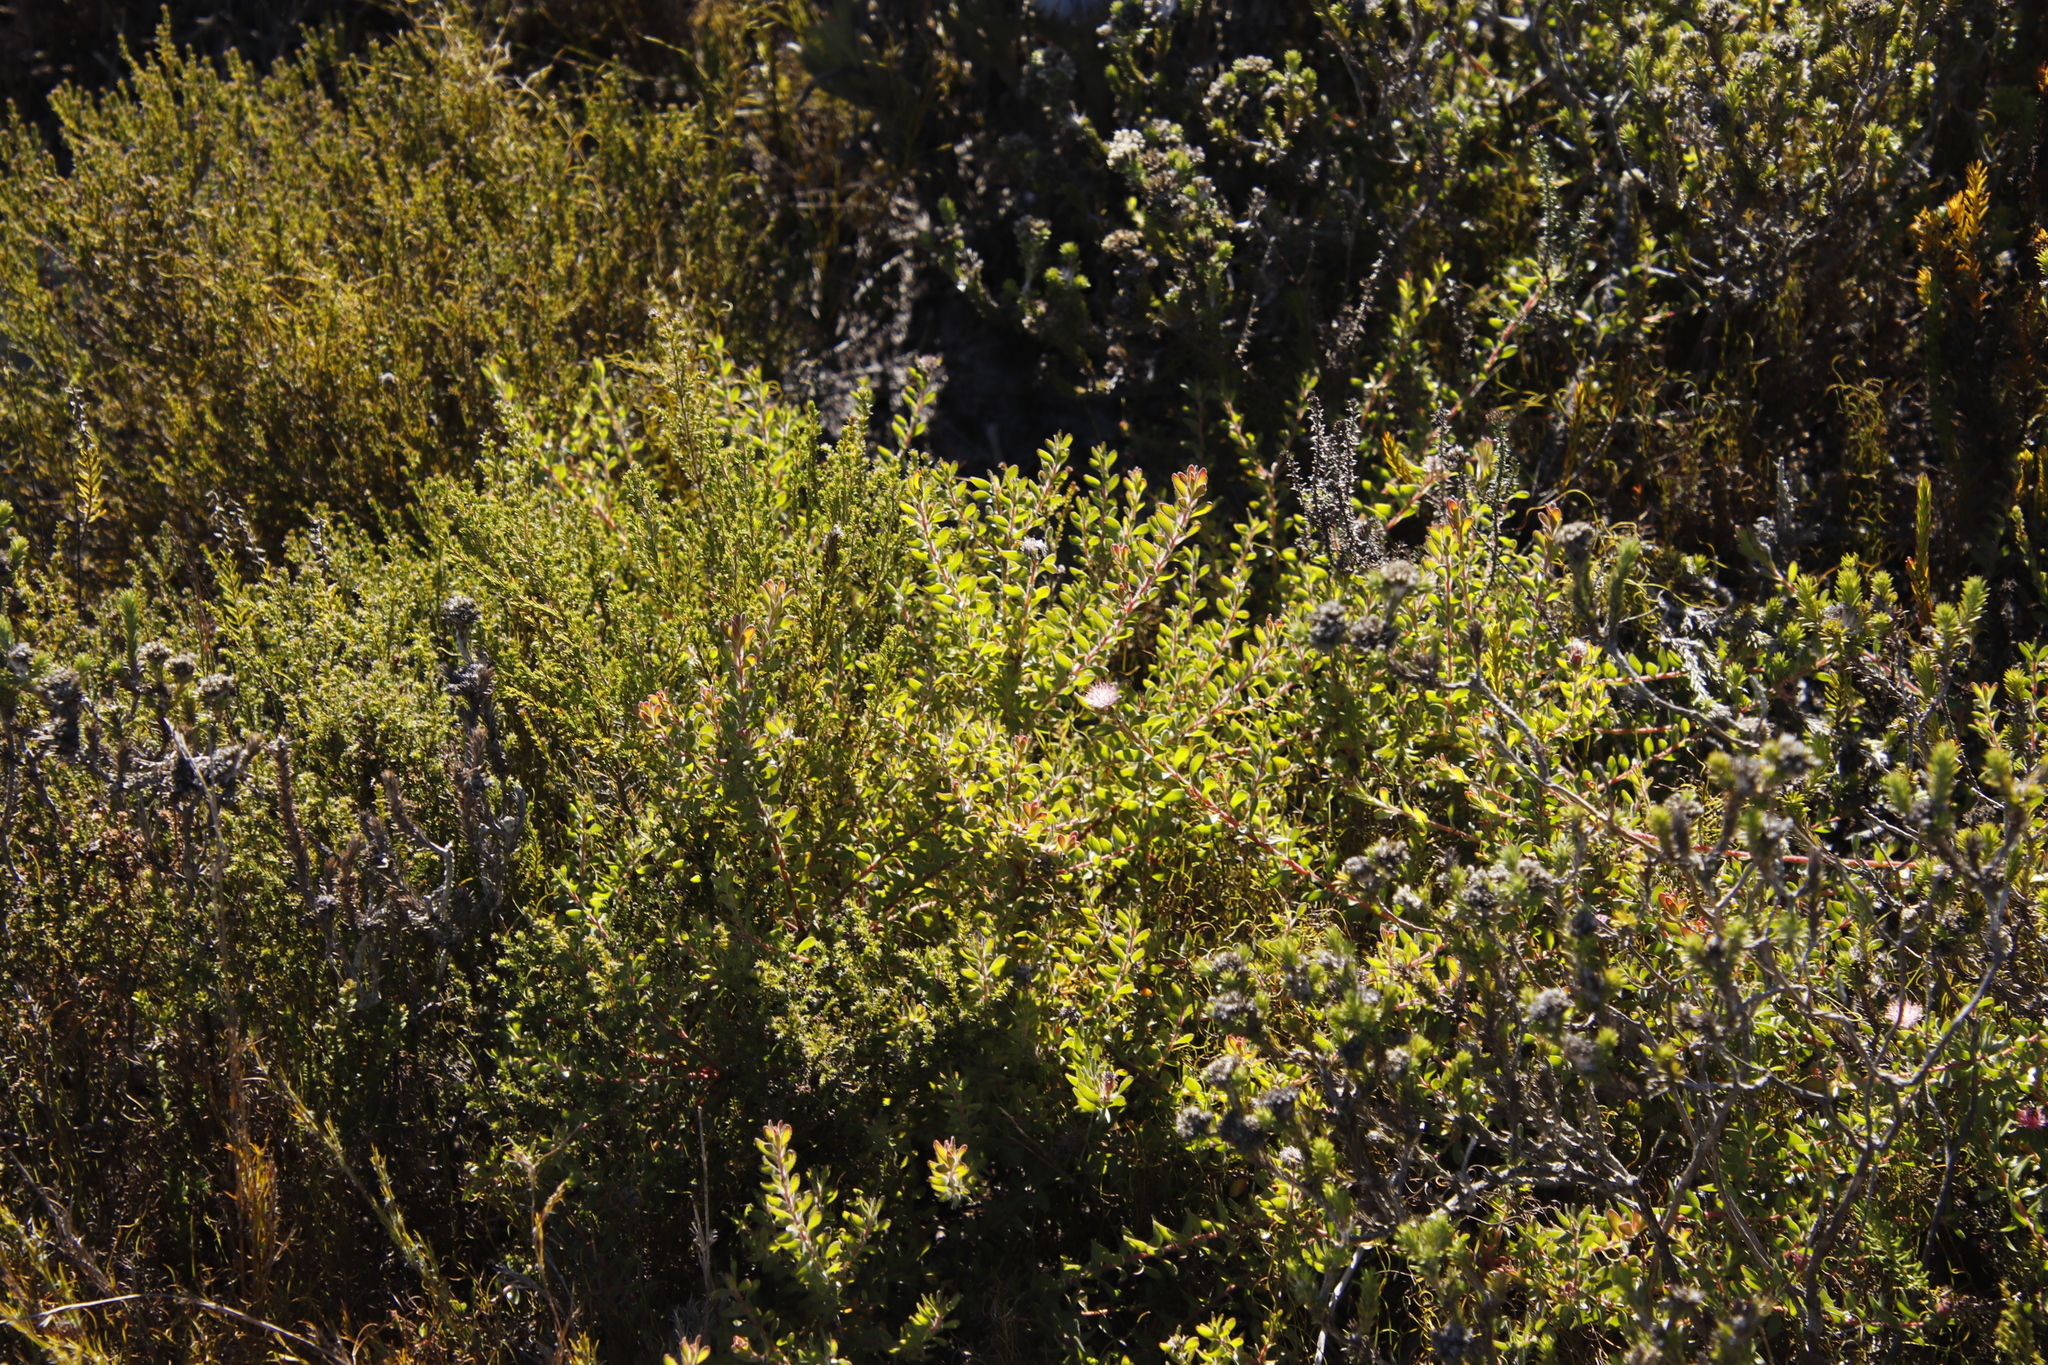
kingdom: Plantae
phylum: Tracheophyta
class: Magnoliopsida
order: Proteales
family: Proteaceae
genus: Diastella
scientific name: Diastella divaricata
